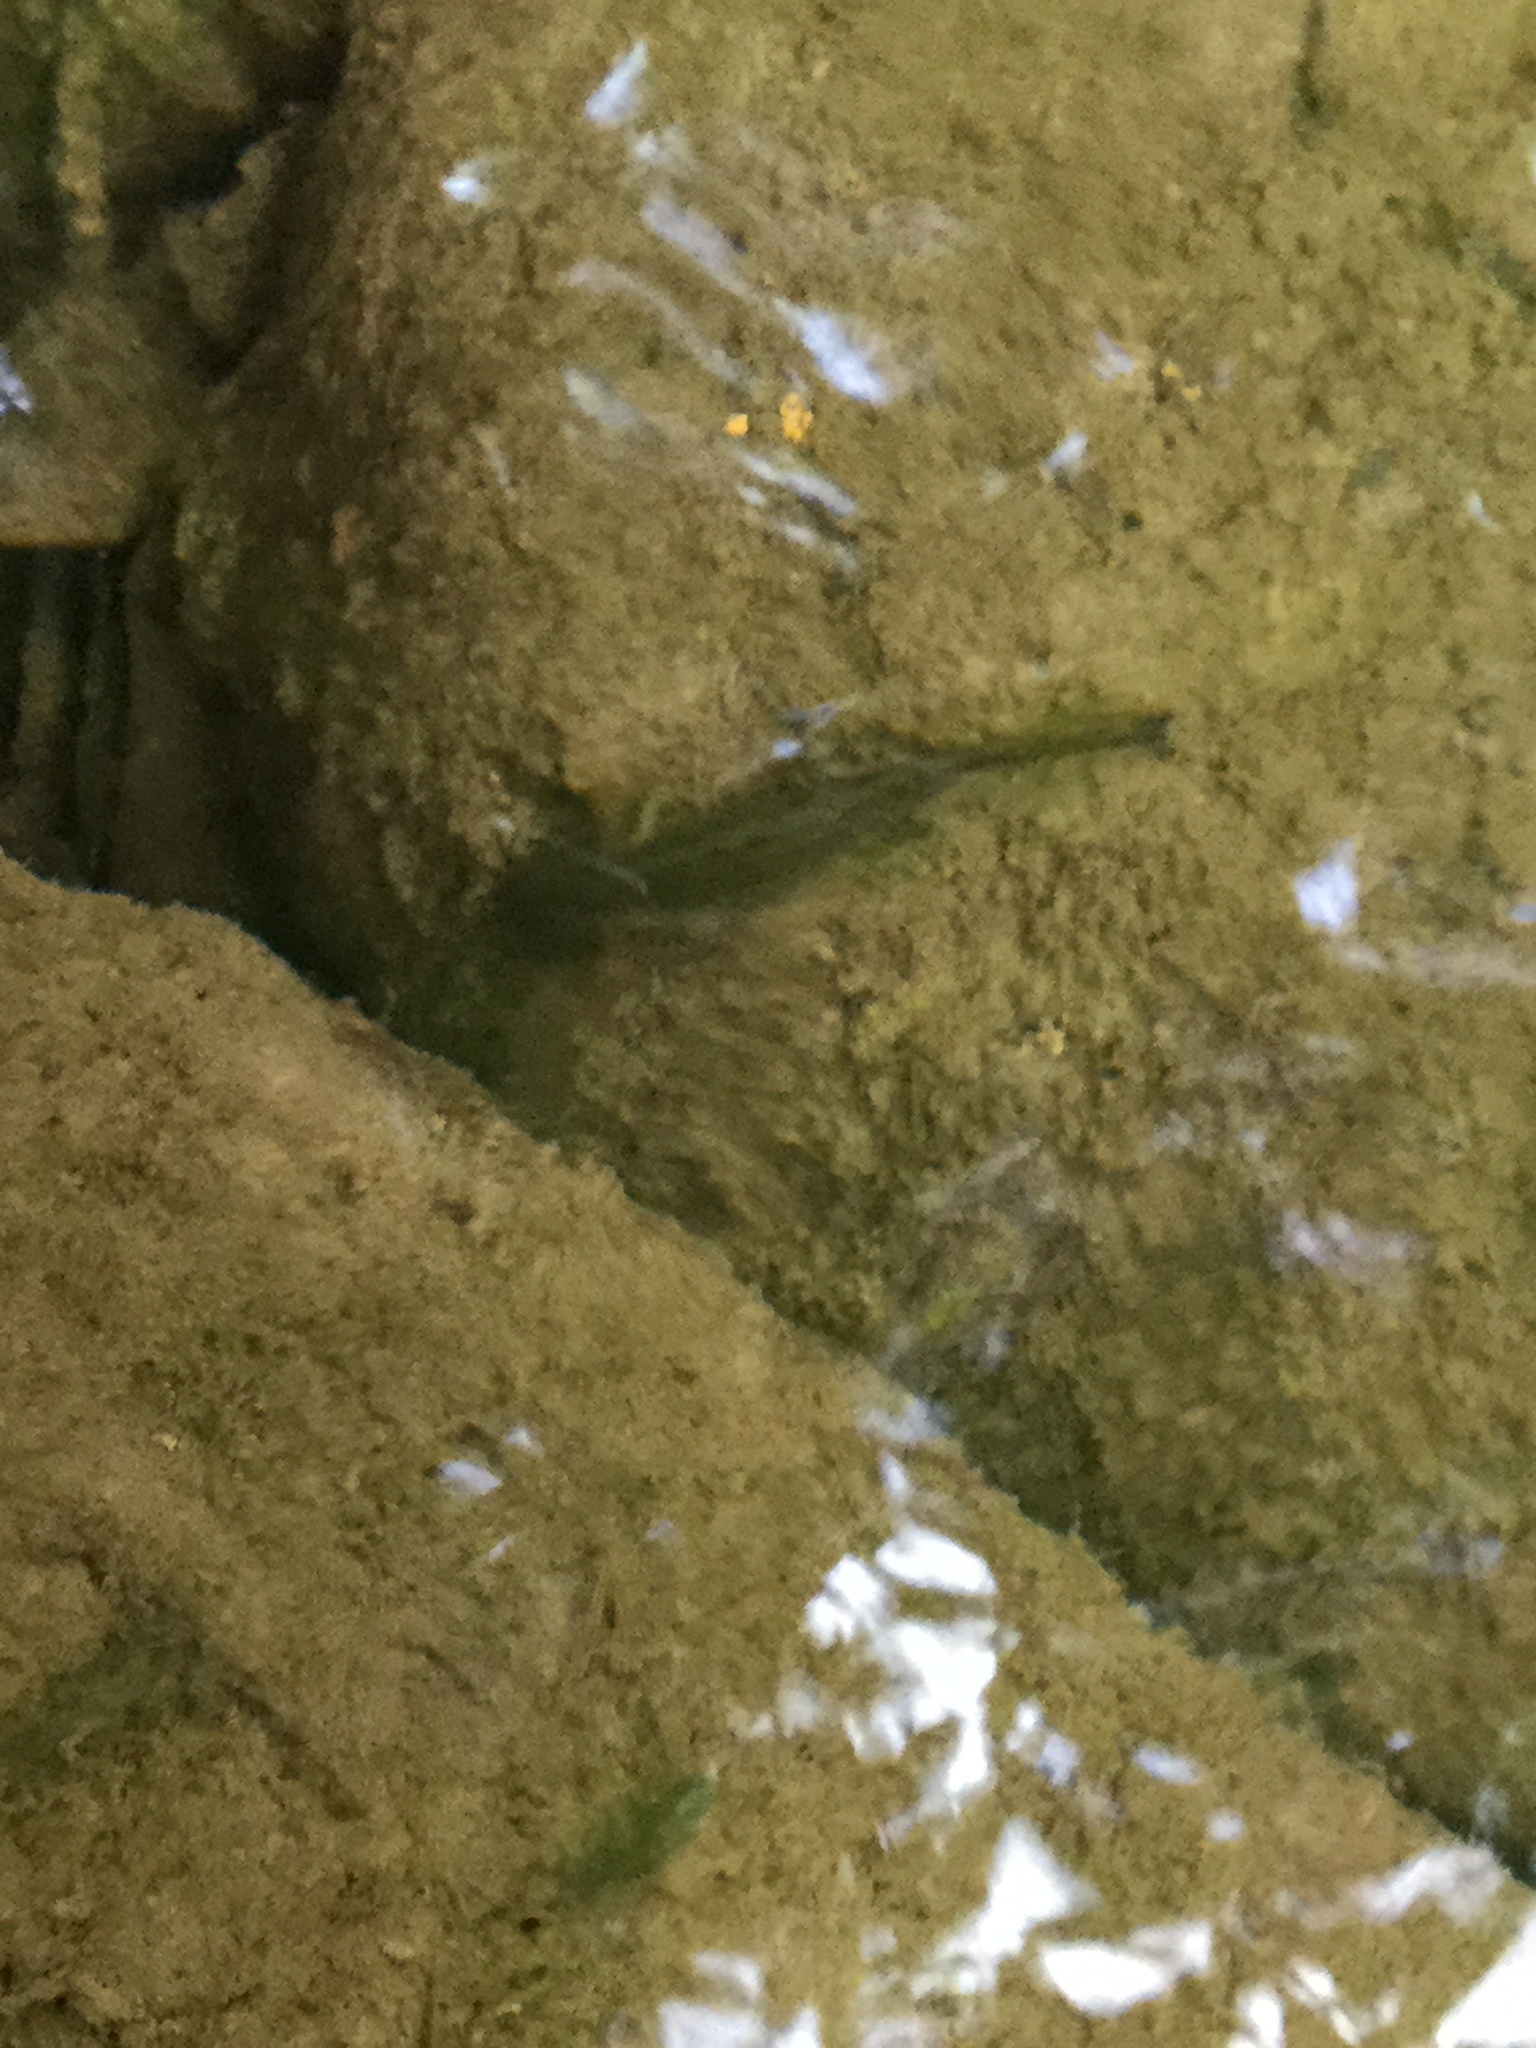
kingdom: Animalia
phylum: Chordata
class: Amphibia
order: Caudata
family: Ambystomatidae
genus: Ambystoma
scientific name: Ambystoma velasci
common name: Plateau tiger salamander
